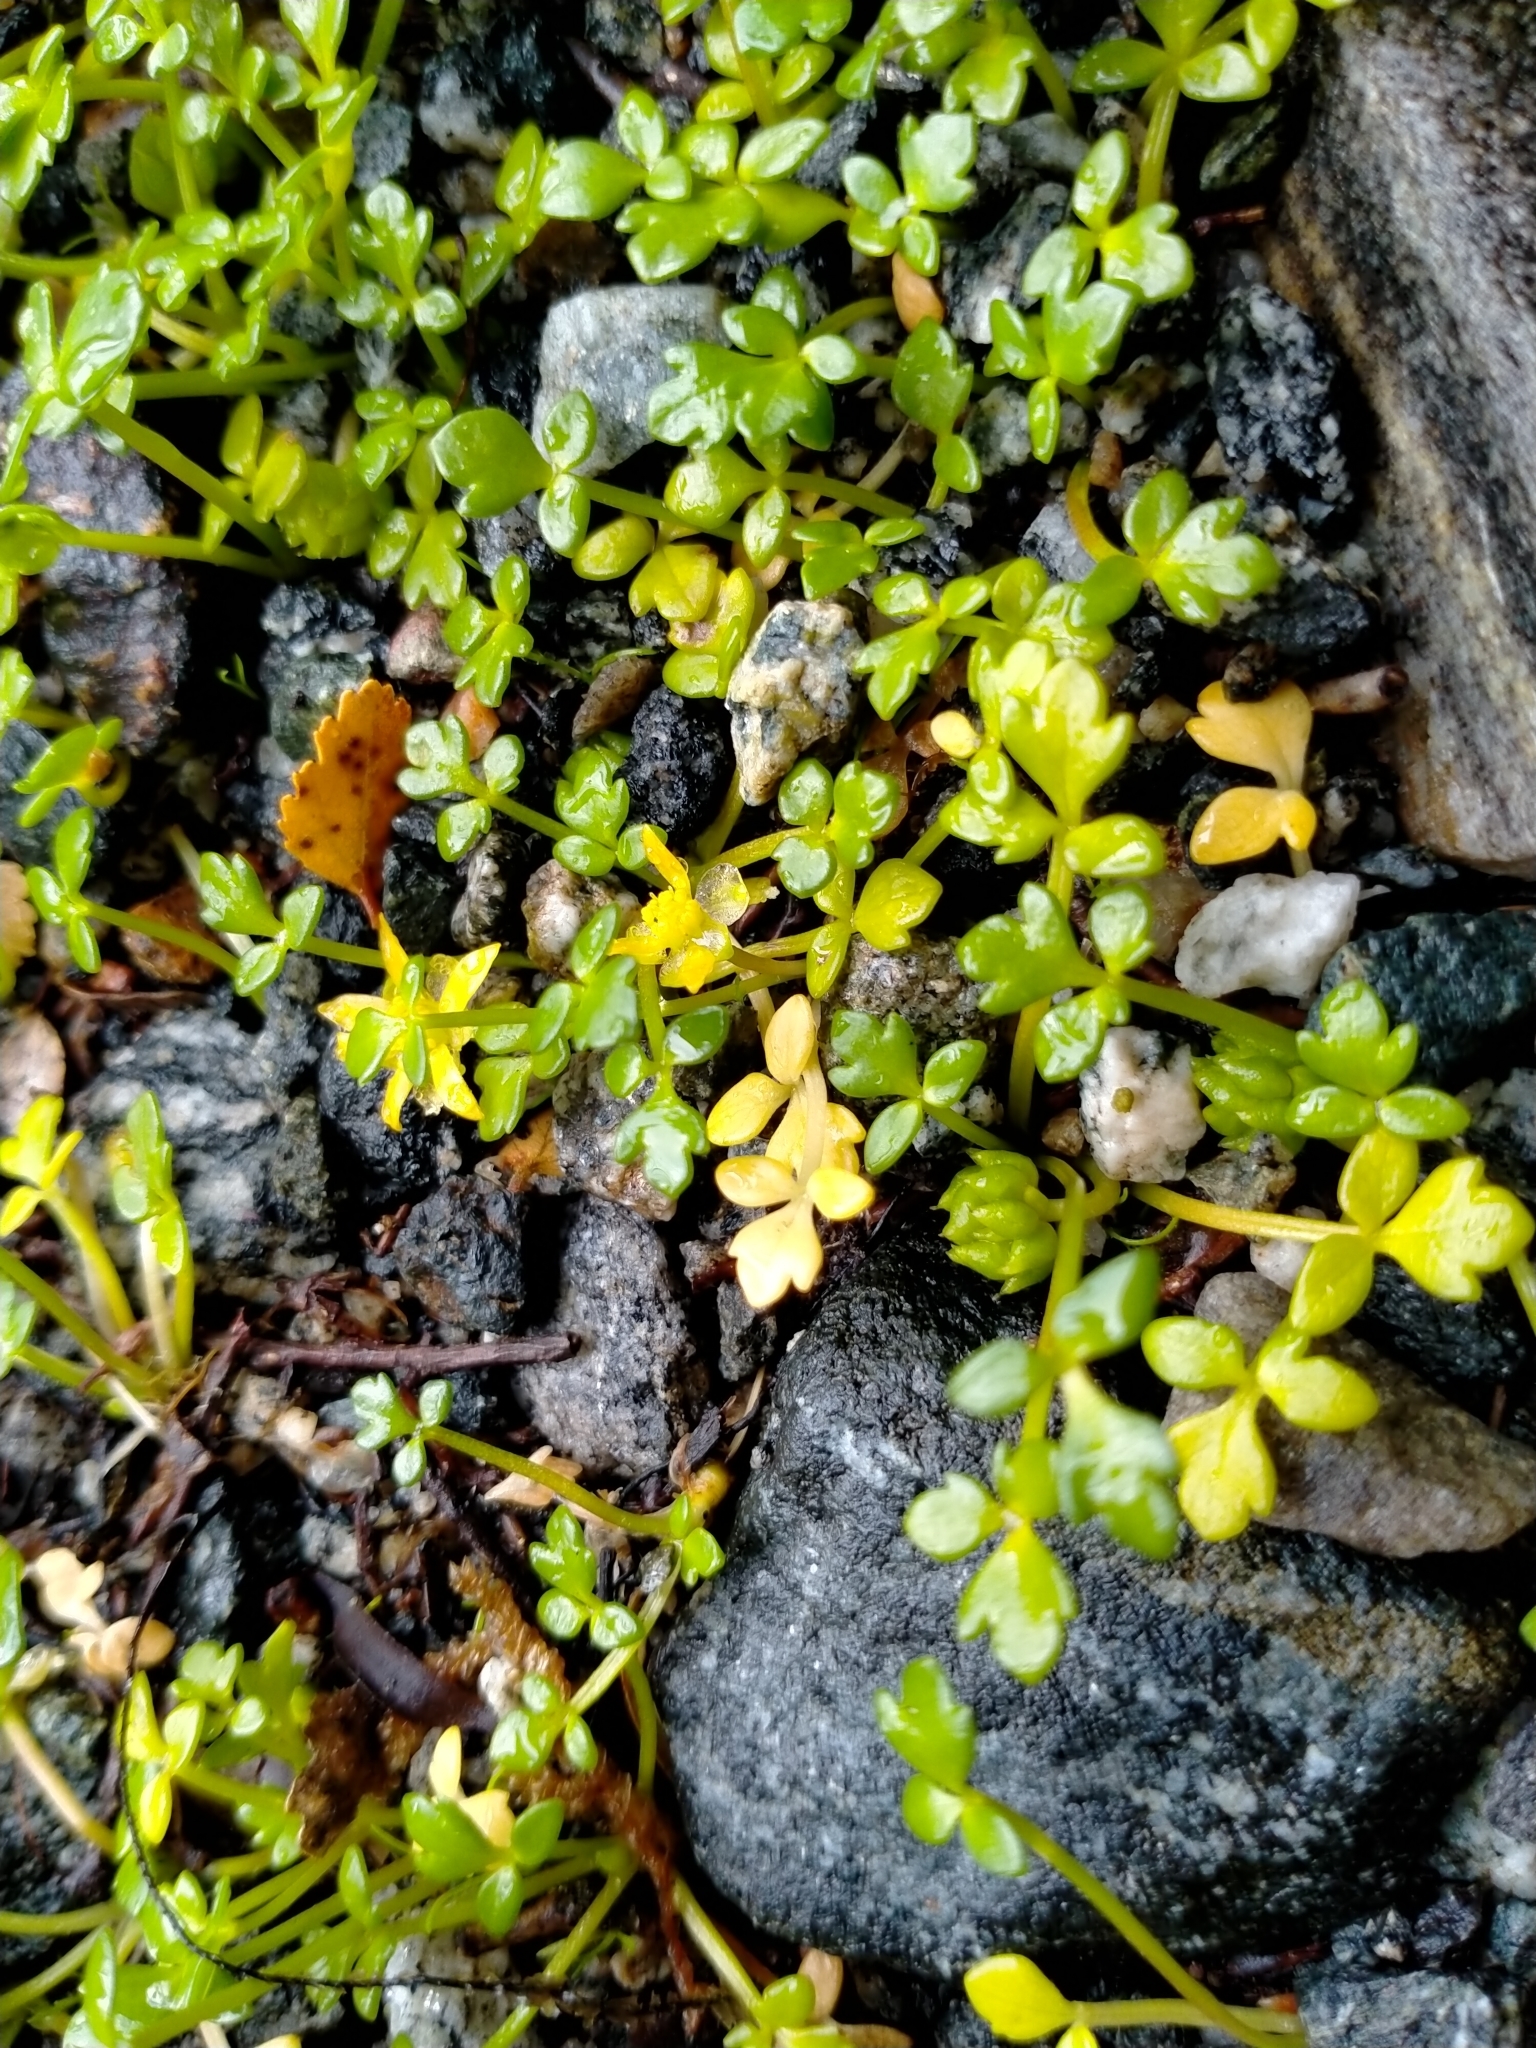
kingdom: Plantae
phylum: Tracheophyta
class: Magnoliopsida
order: Ranunculales
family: Ranunculaceae
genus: Ranunculus
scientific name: Ranunculus acaulis
